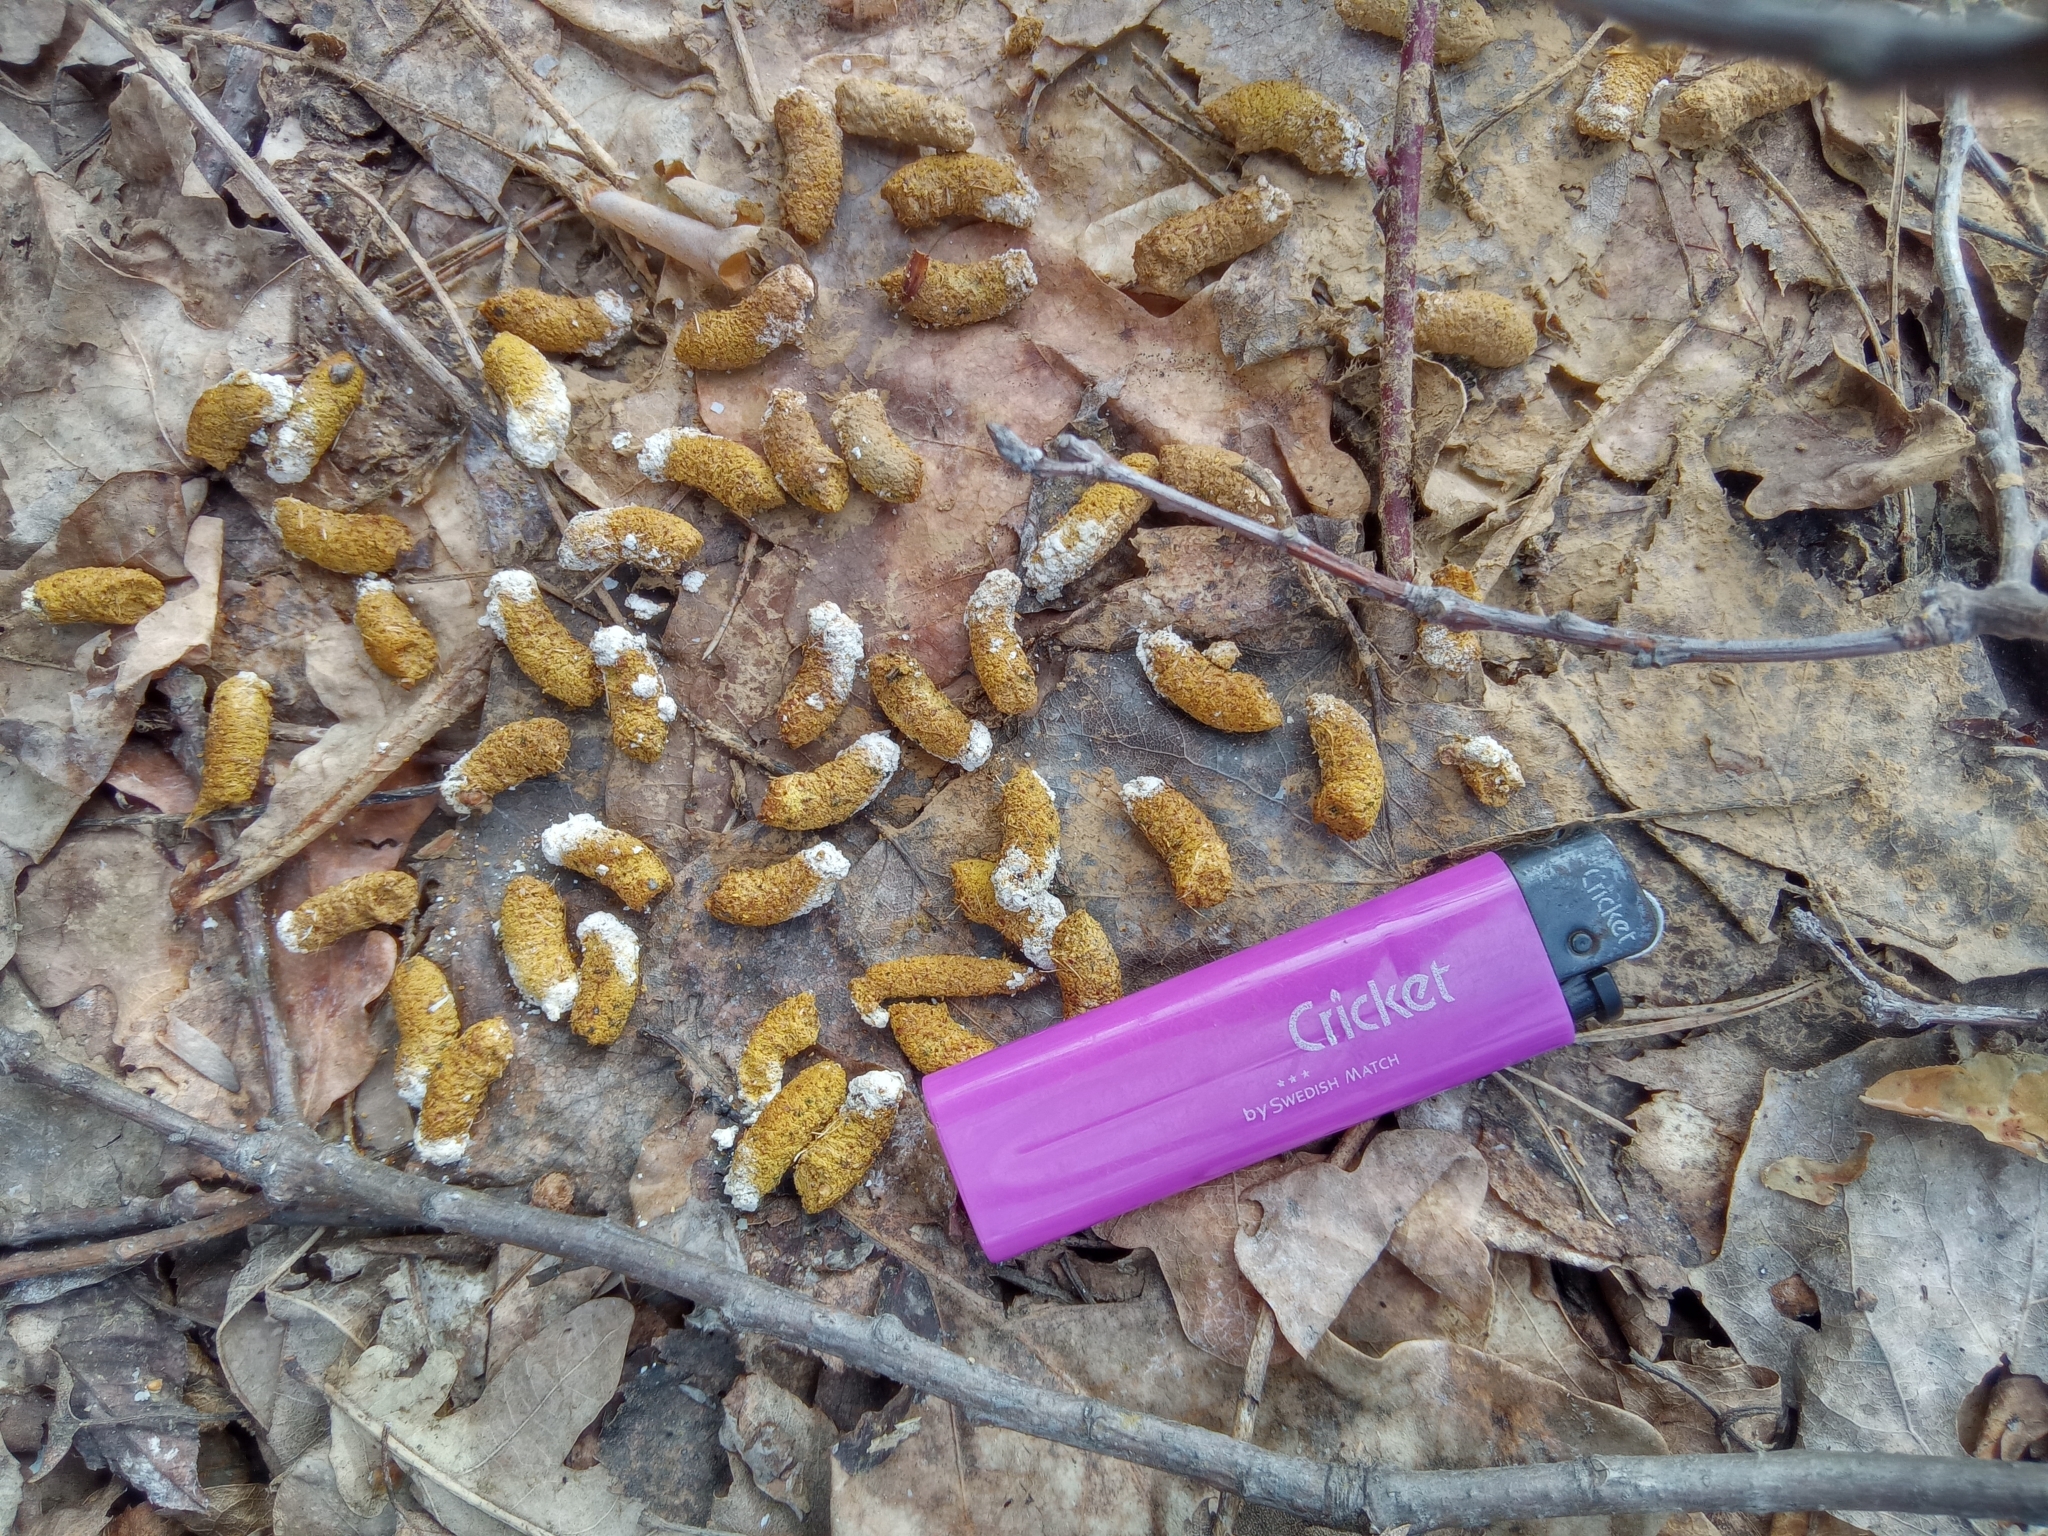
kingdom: Animalia
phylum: Chordata
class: Aves
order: Galliformes
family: Phasianidae
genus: Tetrastes
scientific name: Tetrastes bonasia
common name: Hazel grouse
